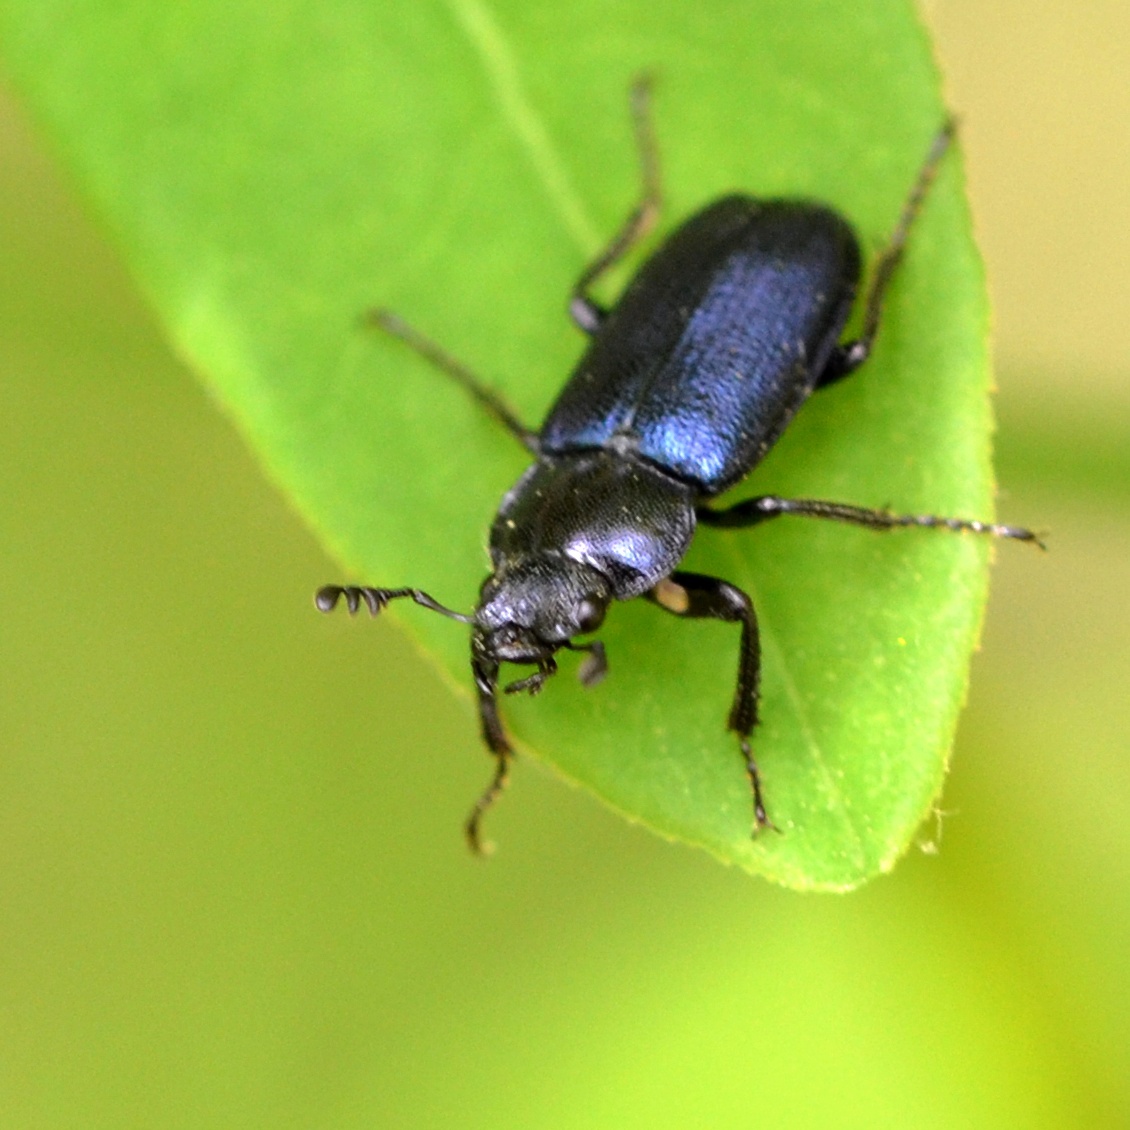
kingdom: Animalia
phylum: Arthropoda
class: Insecta
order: Coleoptera
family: Lucanidae
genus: Platycerus
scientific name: Platycerus caraboides
